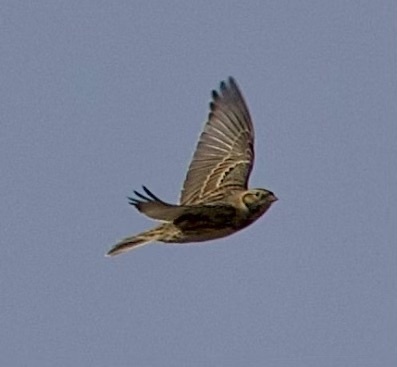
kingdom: Animalia
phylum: Chordata
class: Aves
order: Passeriformes
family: Calcariidae
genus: Calcarius
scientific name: Calcarius lapponicus
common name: Lapland longspur
